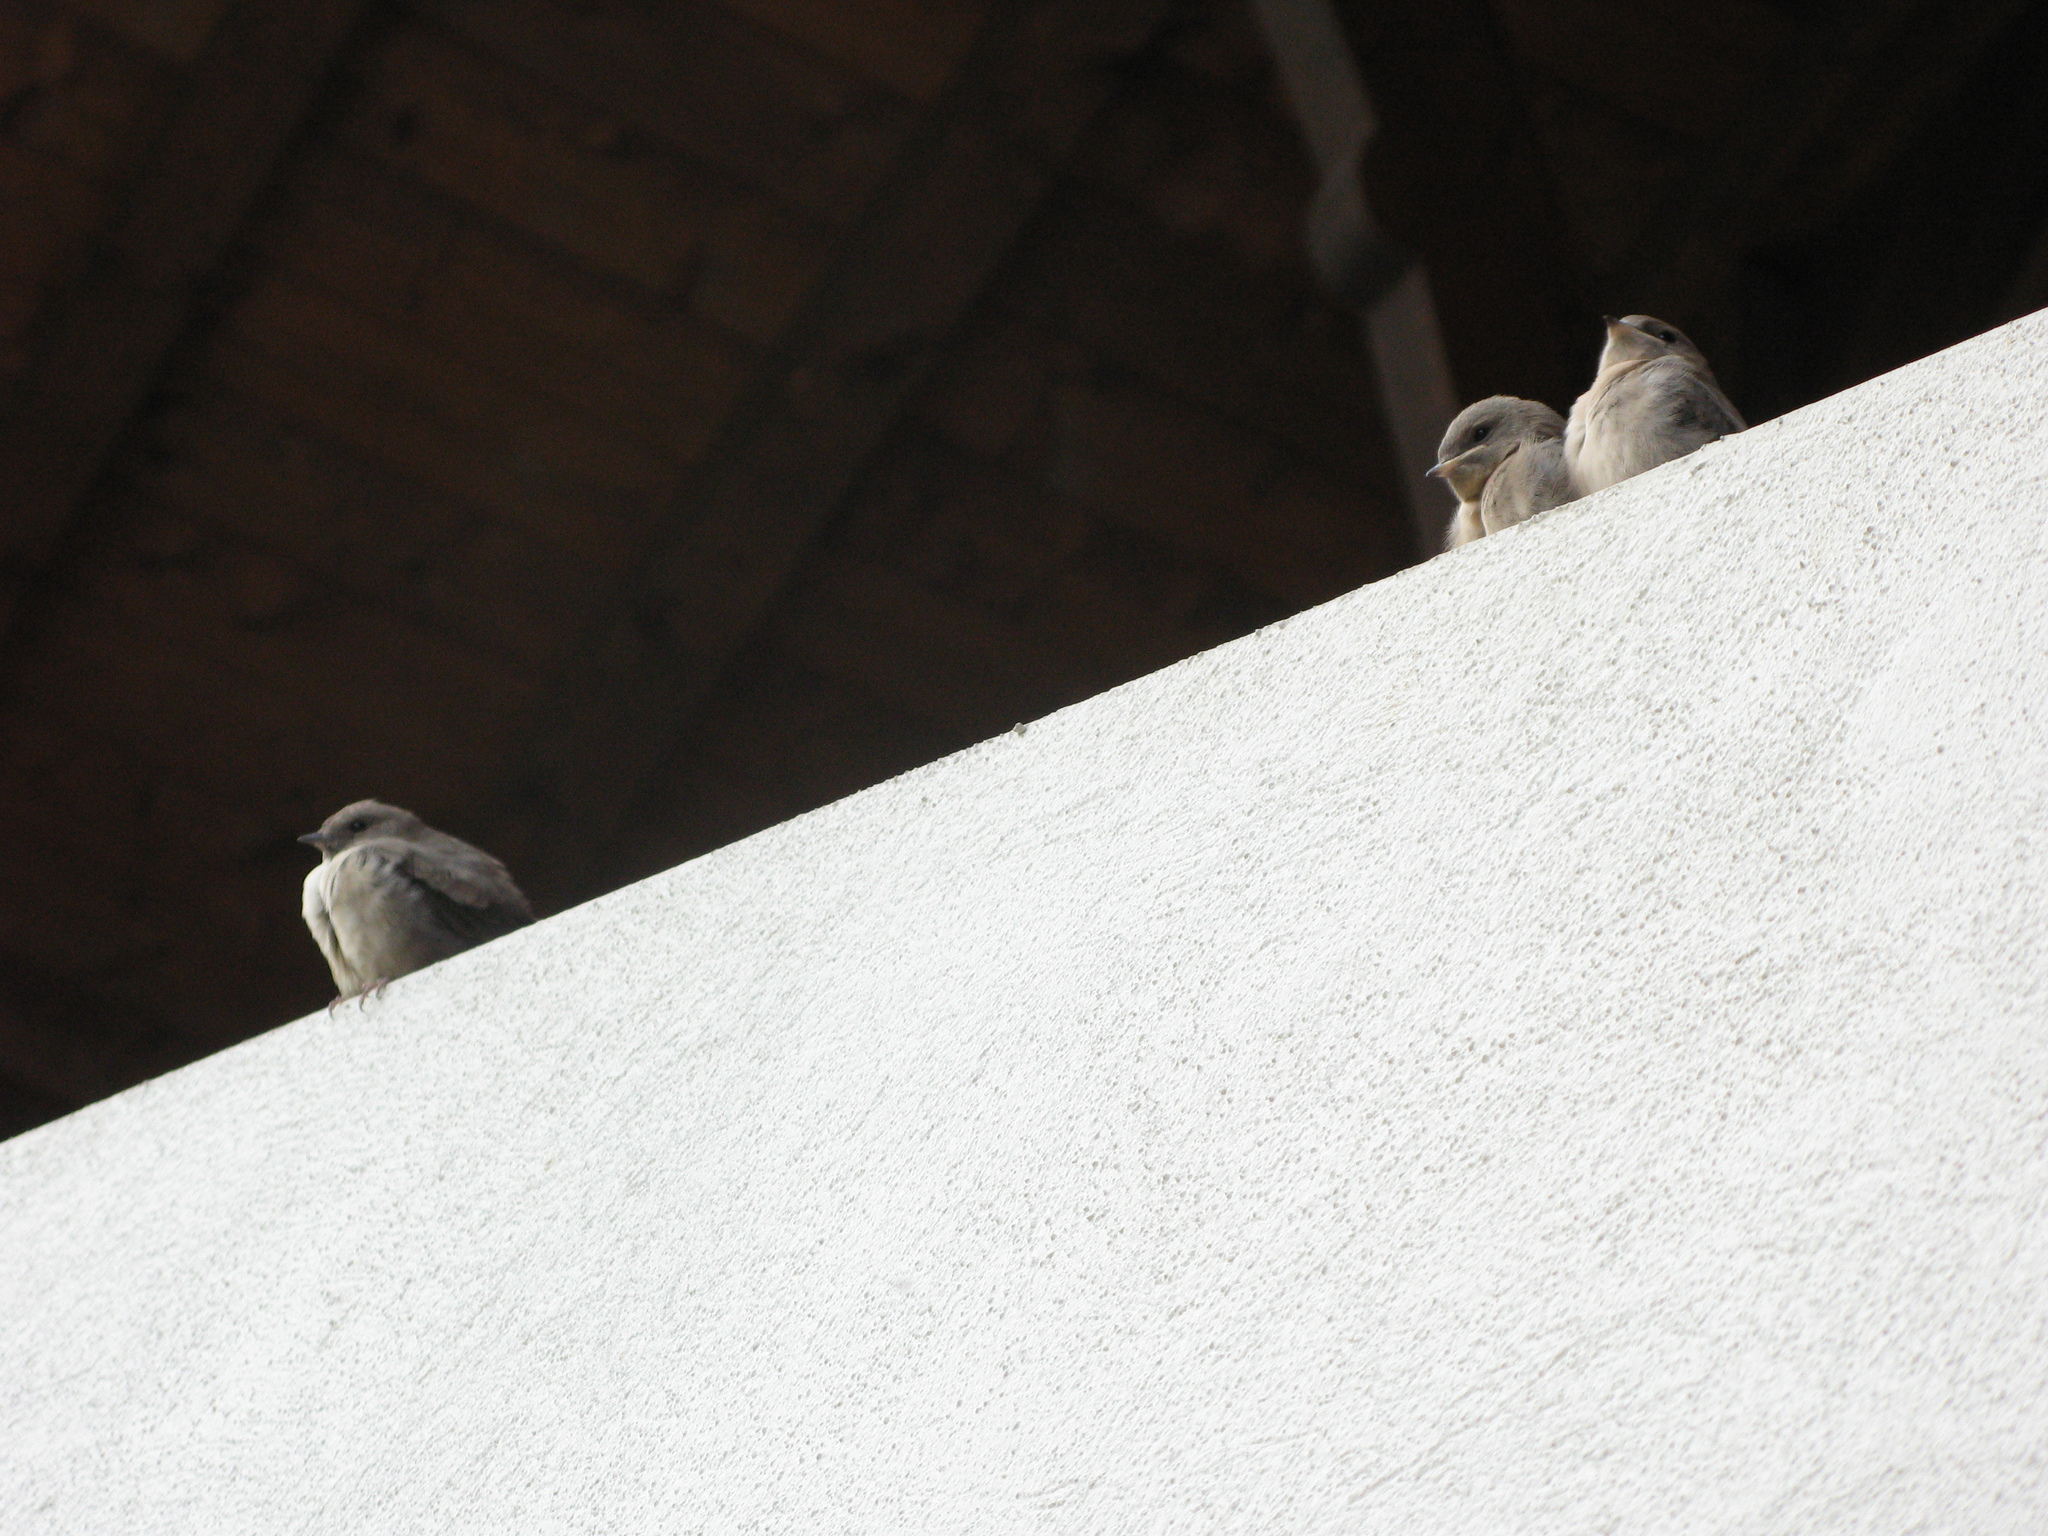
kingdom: Animalia
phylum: Chordata
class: Aves
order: Passeriformes
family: Hirundinidae
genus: Ptyonoprogne
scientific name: Ptyonoprogne rupestris
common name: Eurasian crag martin
